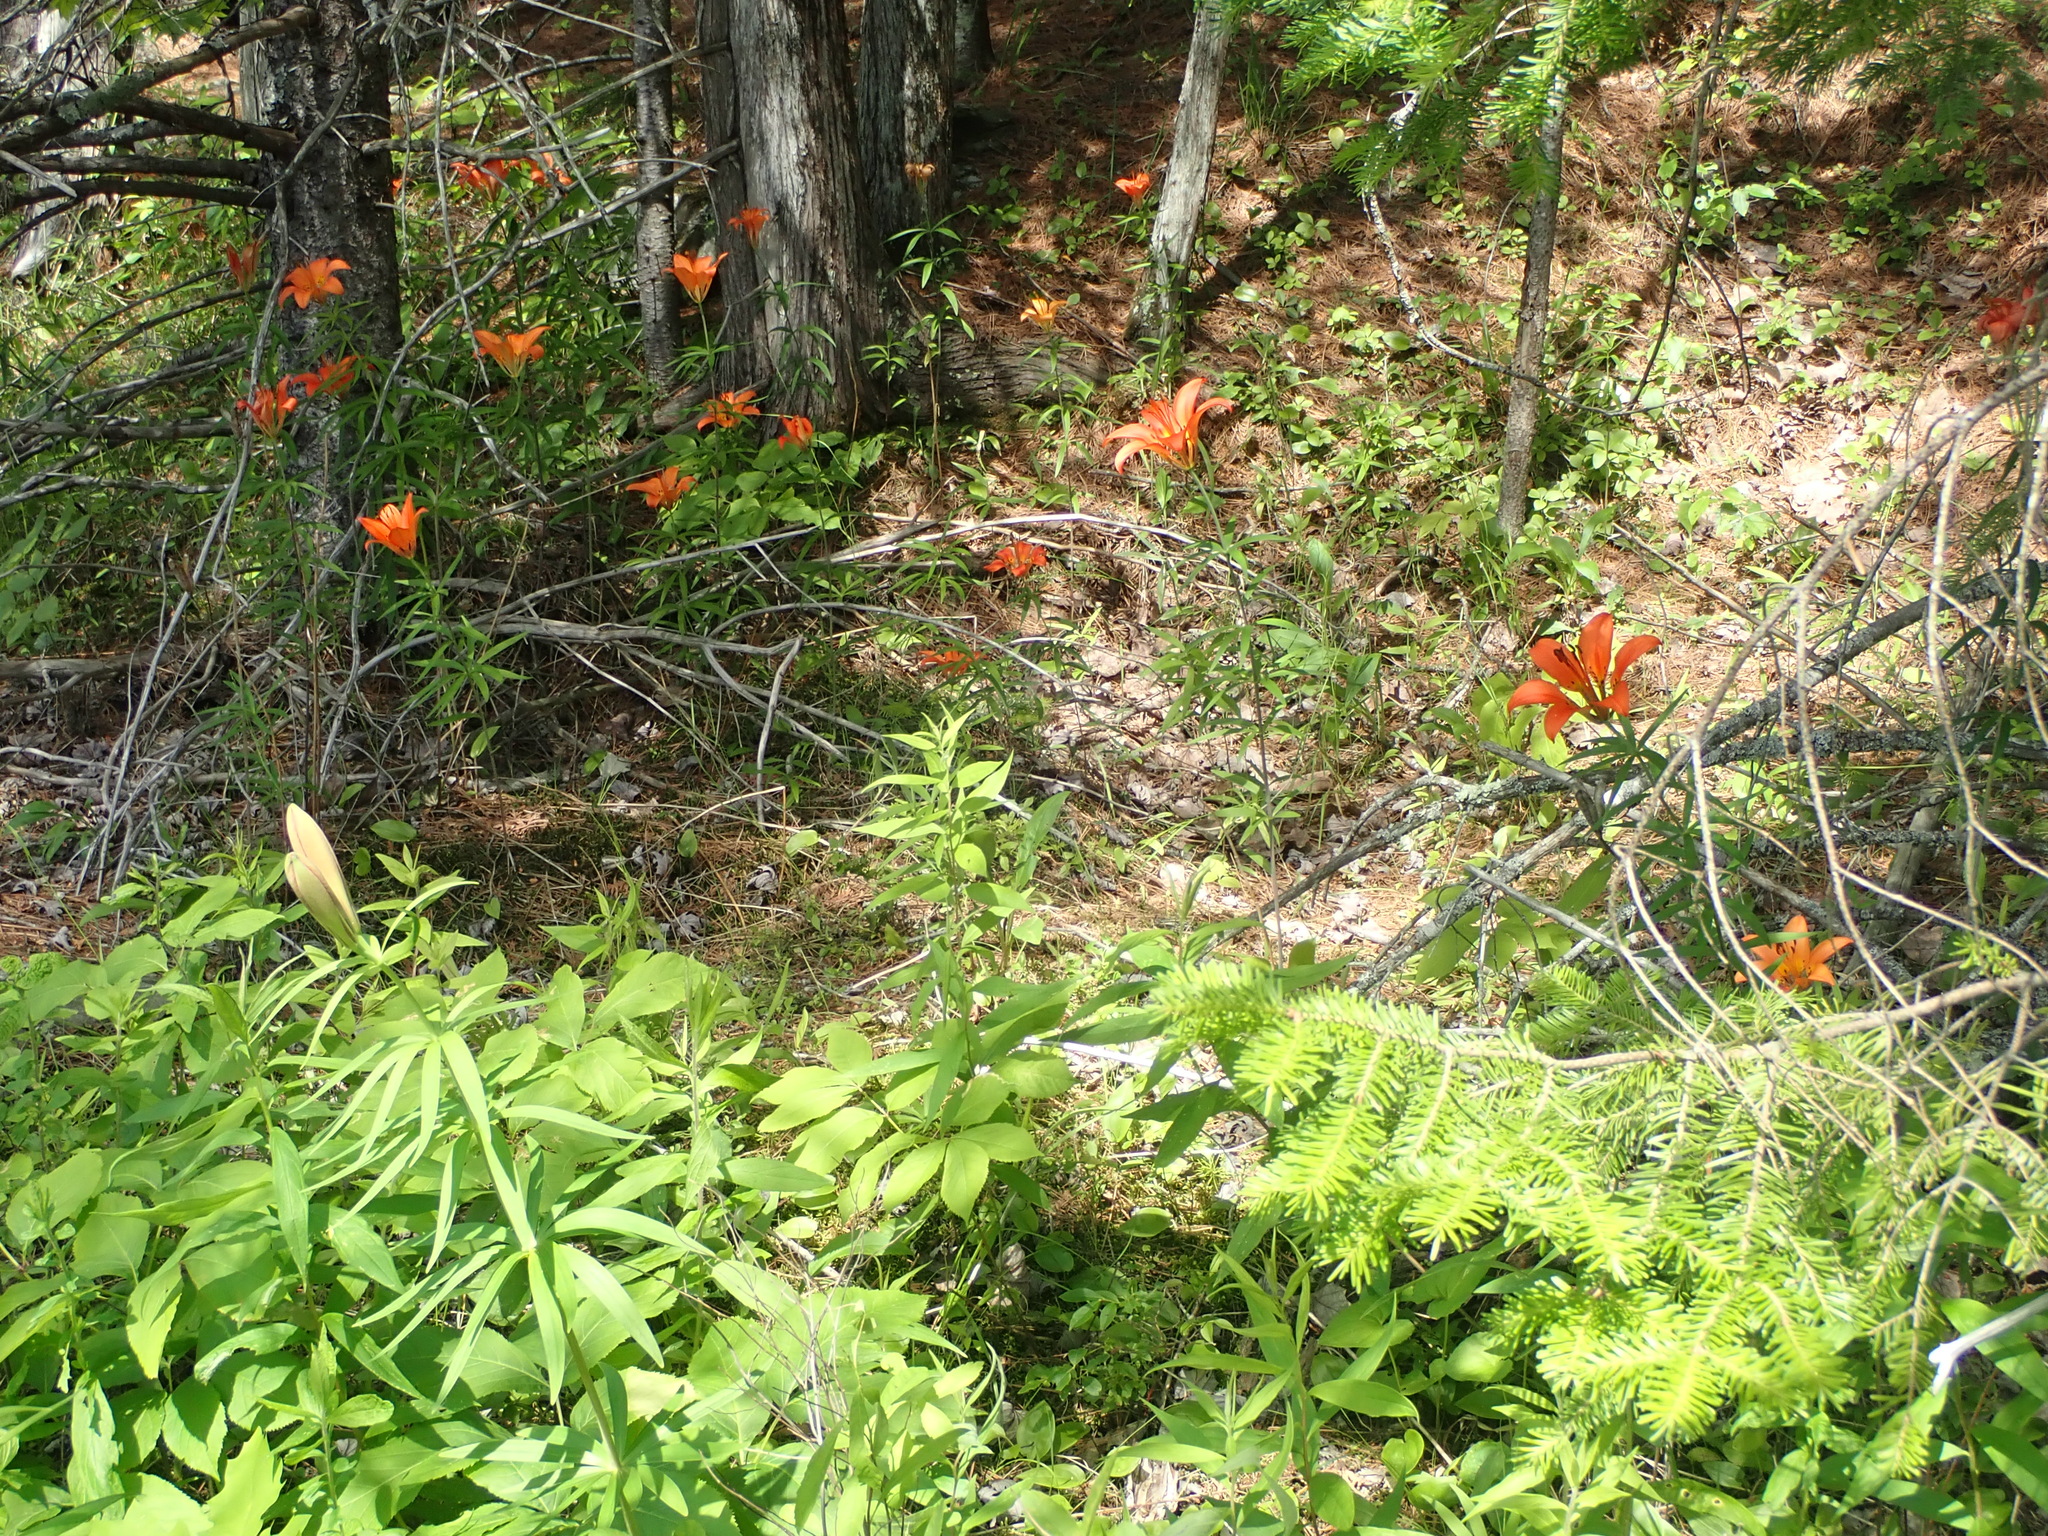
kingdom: Plantae
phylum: Tracheophyta
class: Liliopsida
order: Liliales
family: Liliaceae
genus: Lilium
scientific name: Lilium philadelphicum
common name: Red lily
